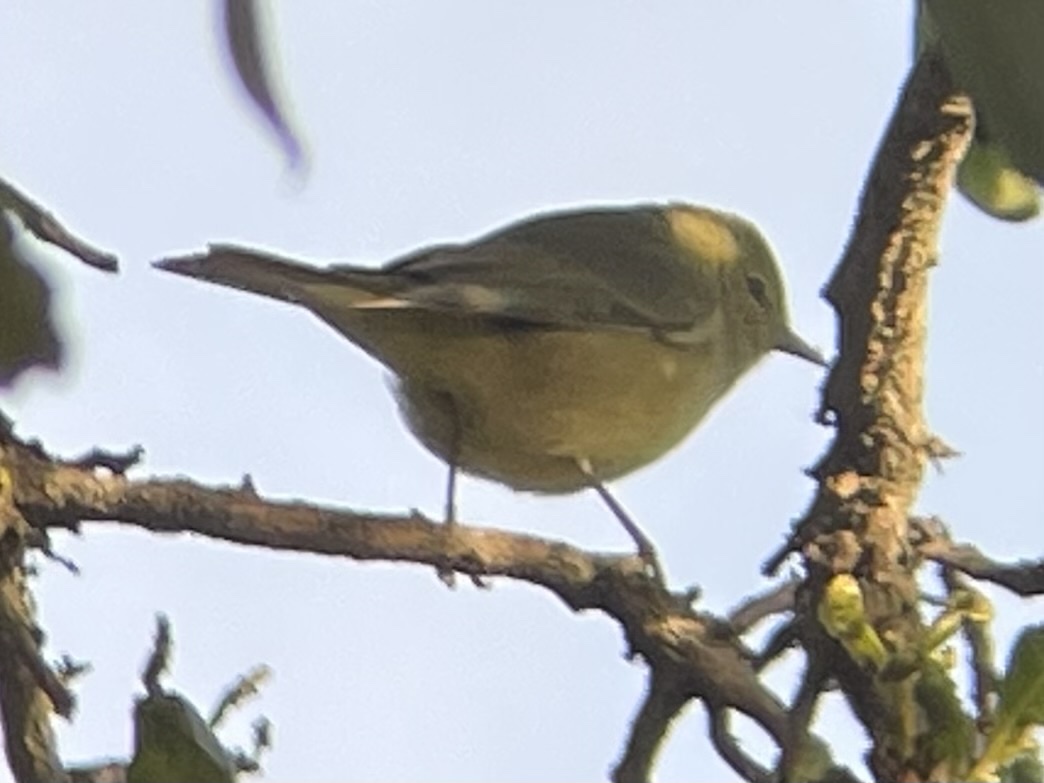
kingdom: Animalia
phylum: Chordata
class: Aves
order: Passeriformes
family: Parulidae
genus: Leiothlypis
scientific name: Leiothlypis celata
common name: Orange-crowned warbler
